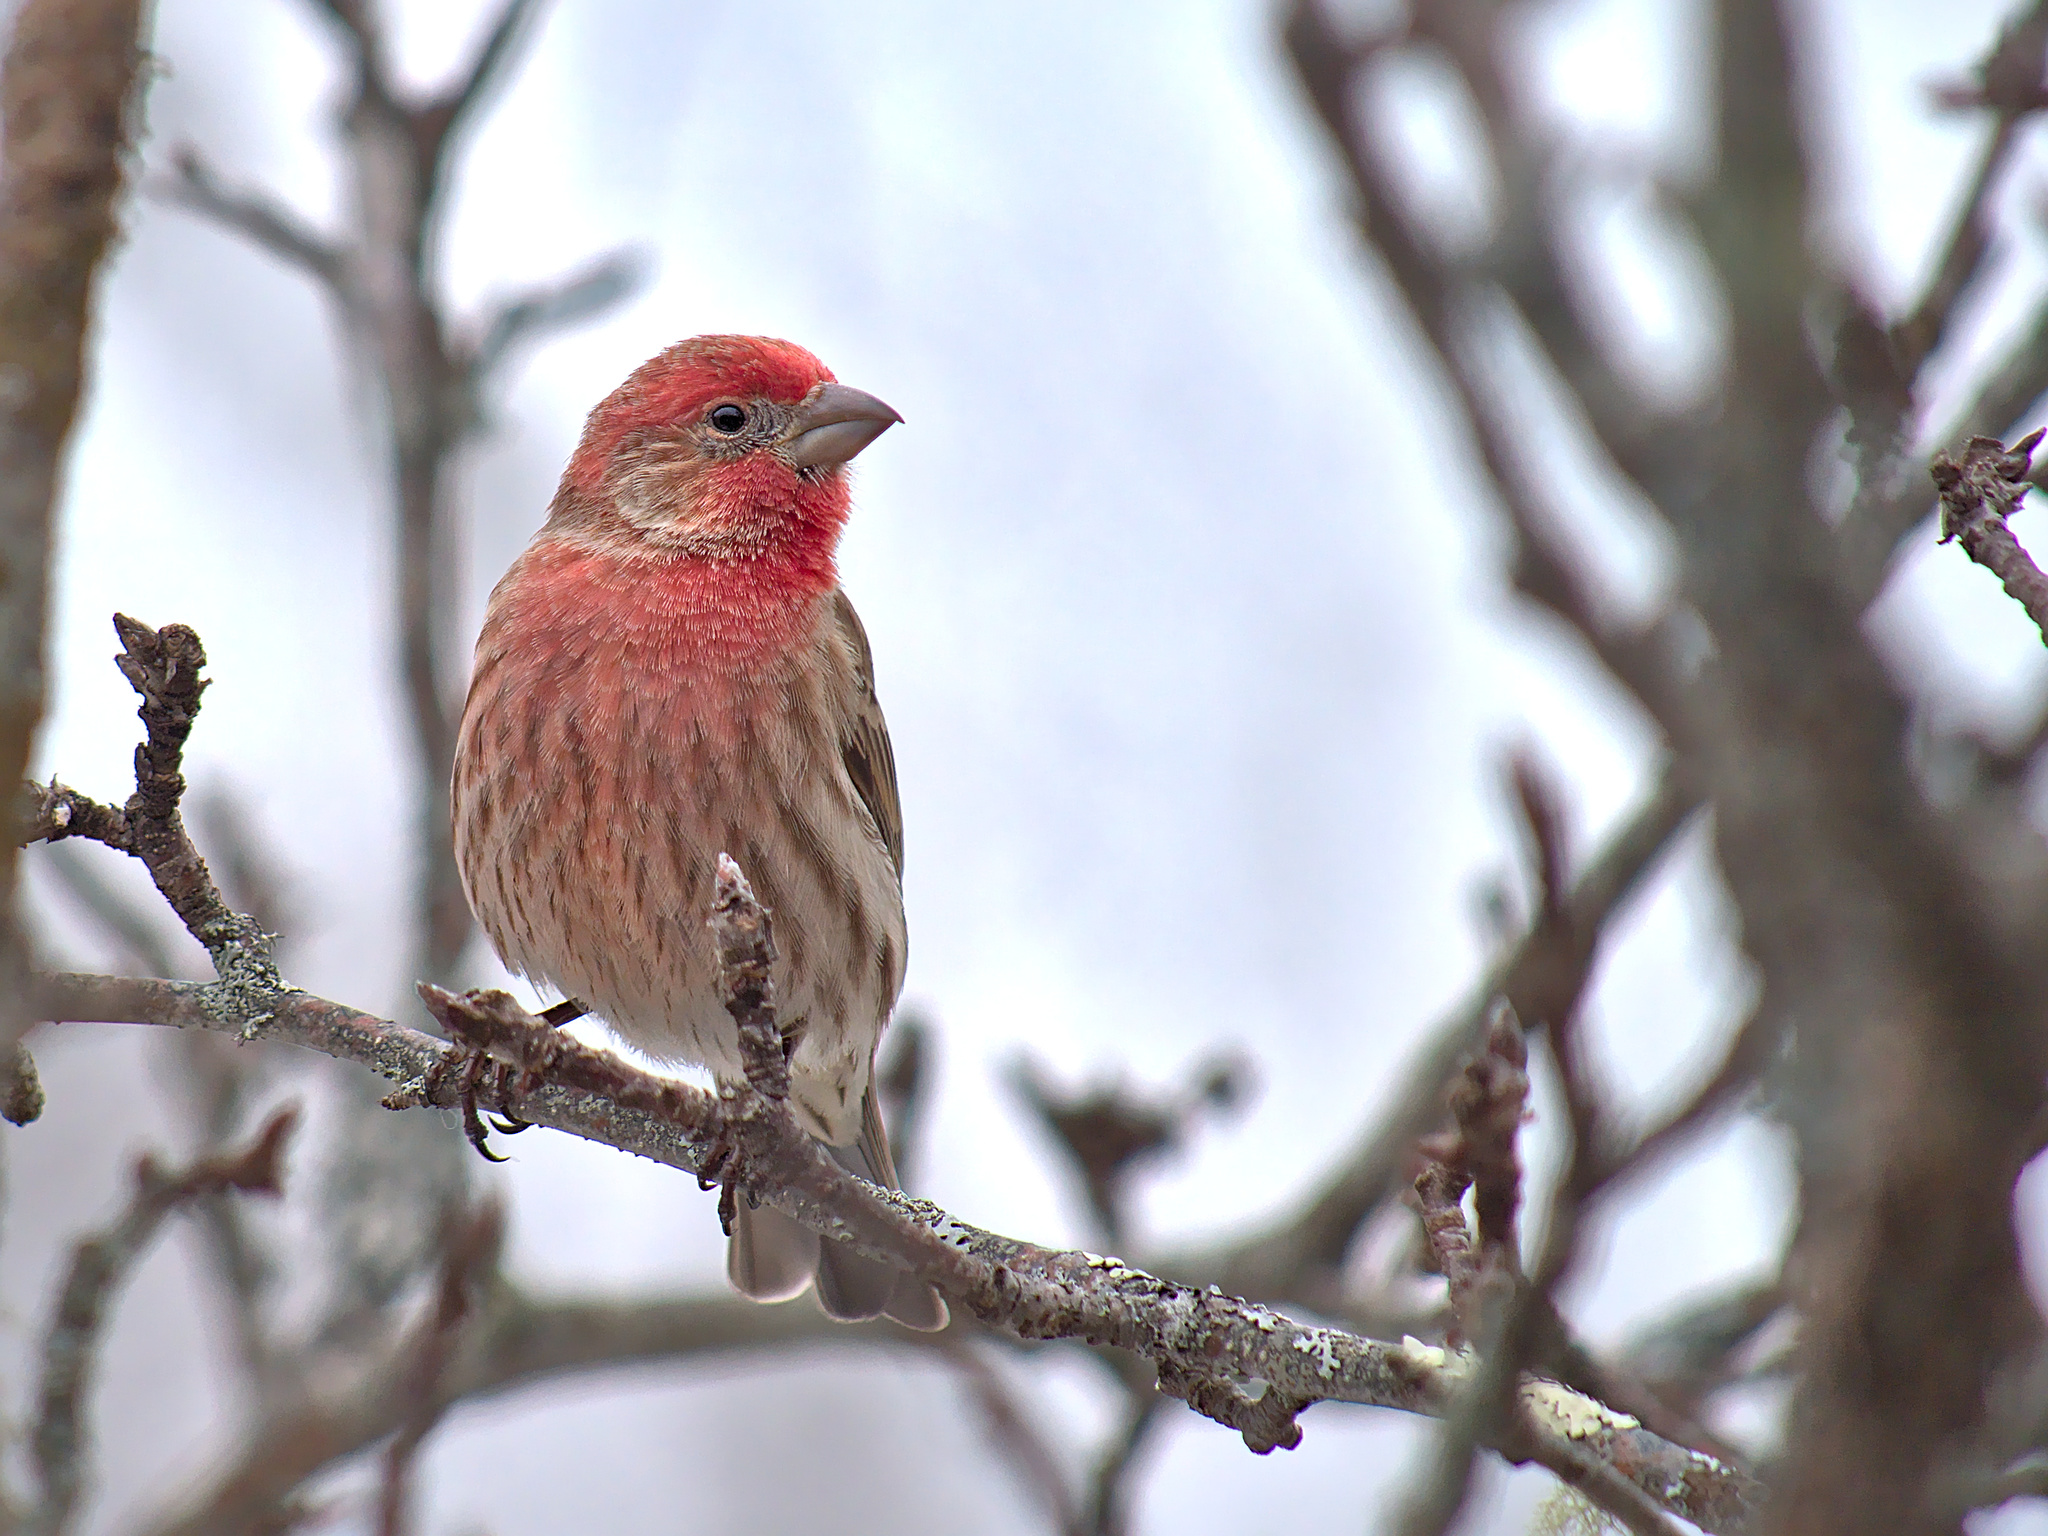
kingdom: Animalia
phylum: Chordata
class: Aves
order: Passeriformes
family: Fringillidae
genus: Haemorhous
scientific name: Haemorhous mexicanus
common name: House finch
